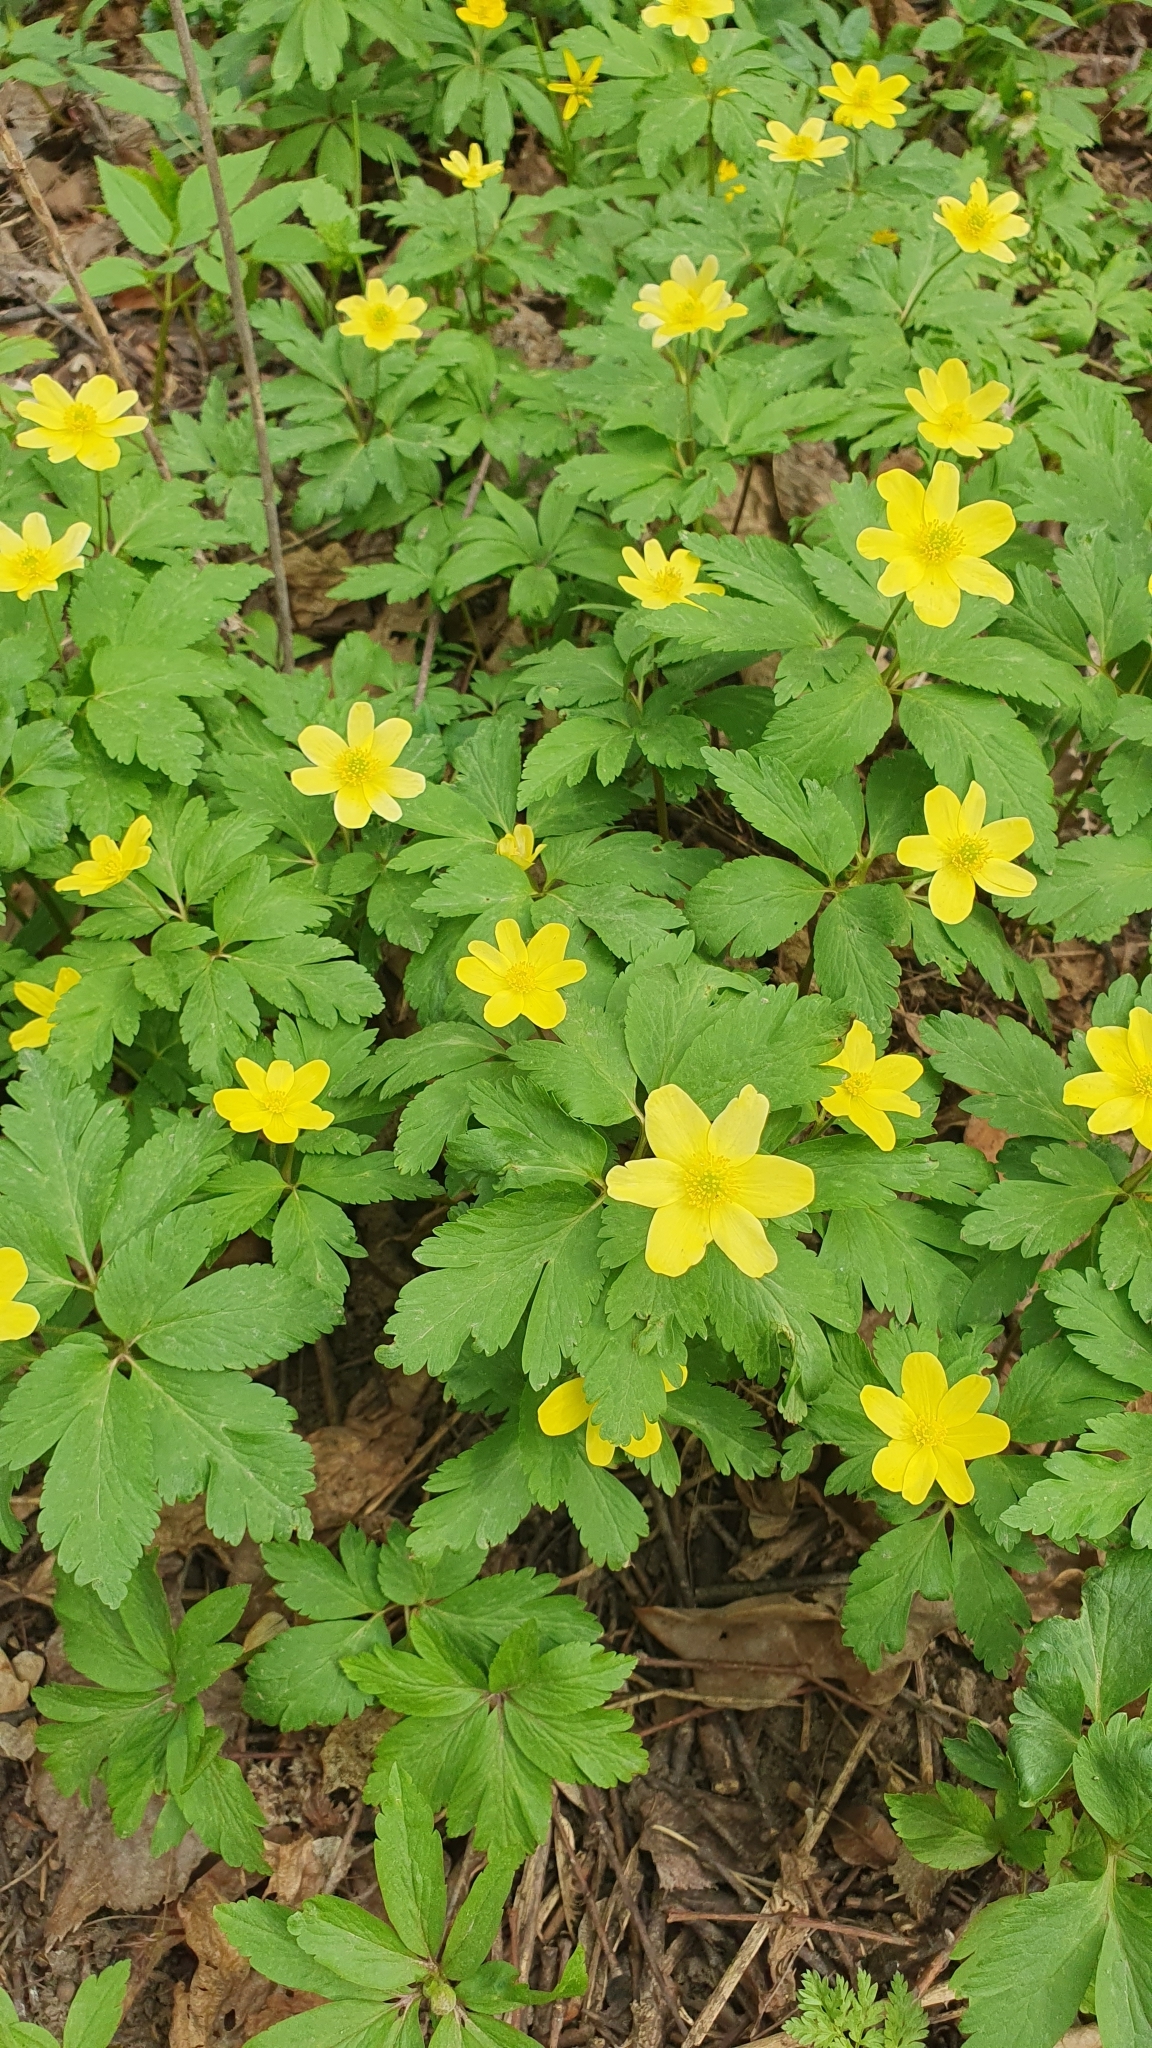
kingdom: Plantae
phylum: Tracheophyta
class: Magnoliopsida
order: Ranunculales
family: Ranunculaceae
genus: Anemone
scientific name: Anemone korzchinskyi
